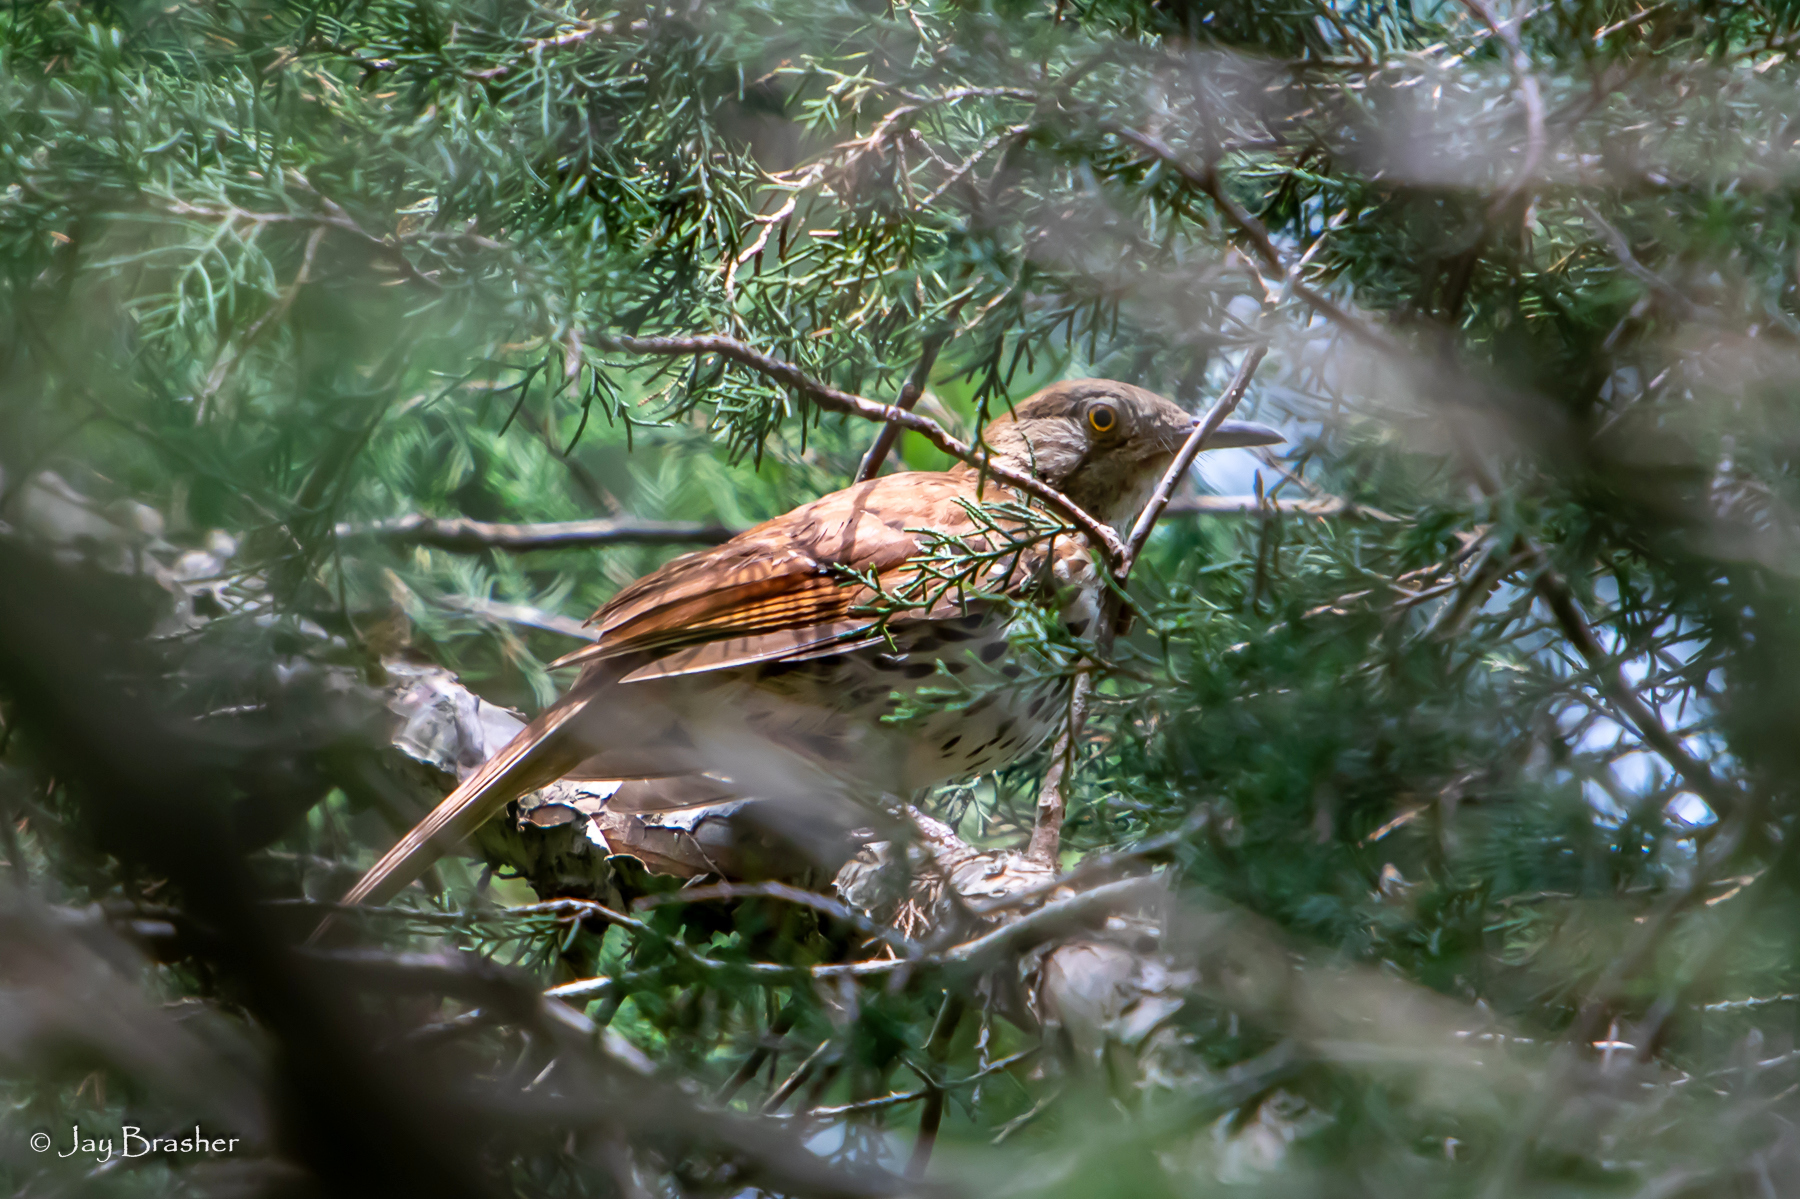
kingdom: Animalia
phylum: Chordata
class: Aves
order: Passeriformes
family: Mimidae
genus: Toxostoma
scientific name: Toxostoma rufum
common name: Brown thrasher
